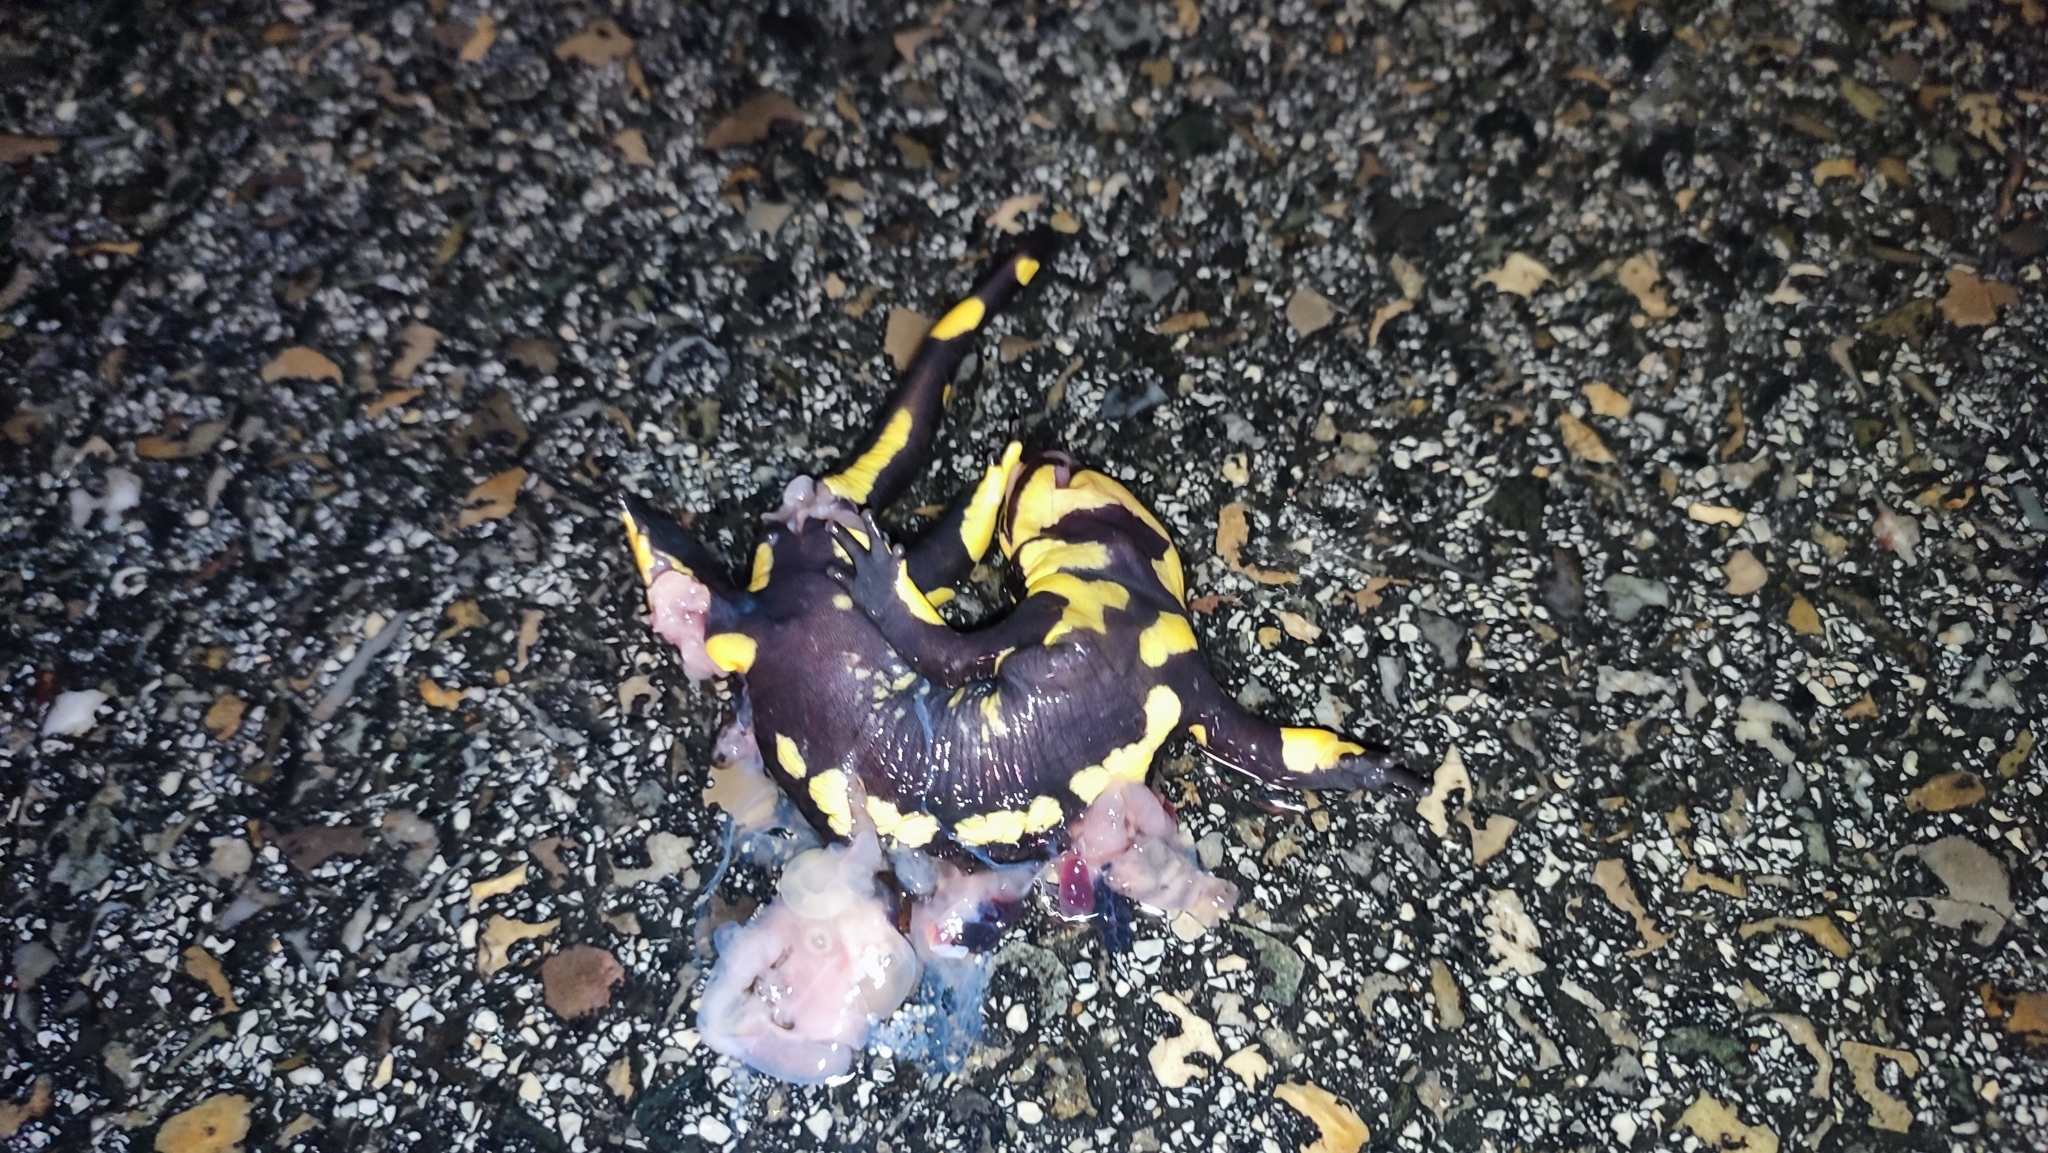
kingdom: Animalia
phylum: Chordata
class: Amphibia
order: Caudata
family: Salamandridae
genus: Salamandra
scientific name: Salamandra salamandra
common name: Fire salamander
